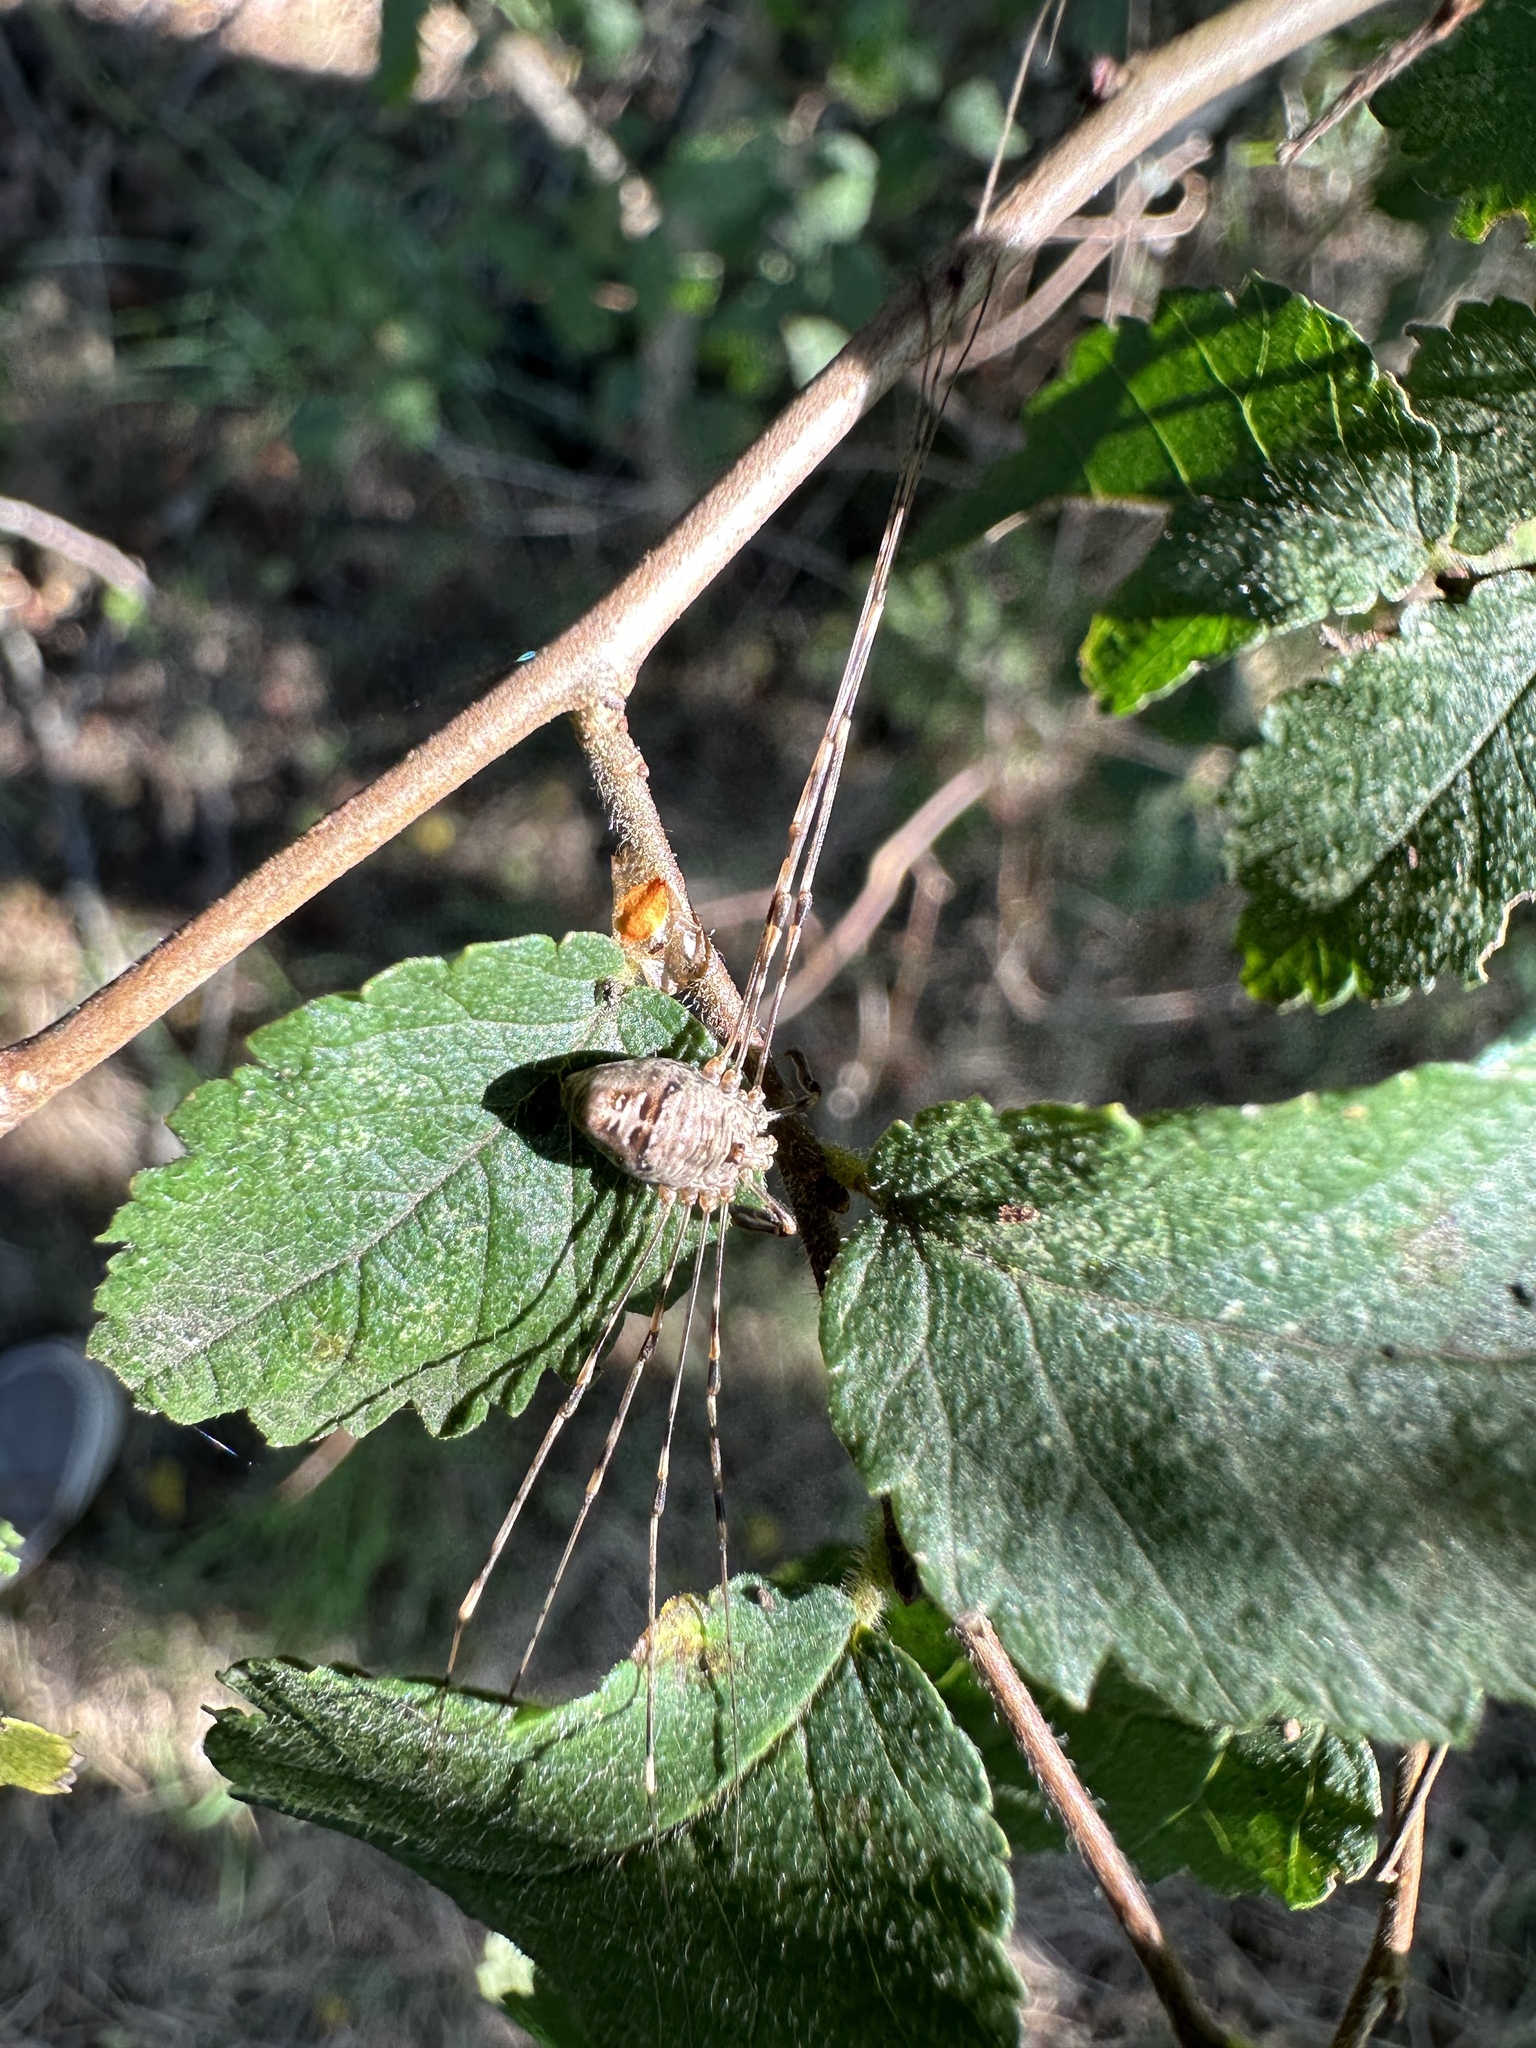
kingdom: Animalia
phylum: Arthropoda
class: Arachnida
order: Opiliones
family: Phalangiidae
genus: Dicranopalpus
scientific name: Dicranopalpus ramosus
